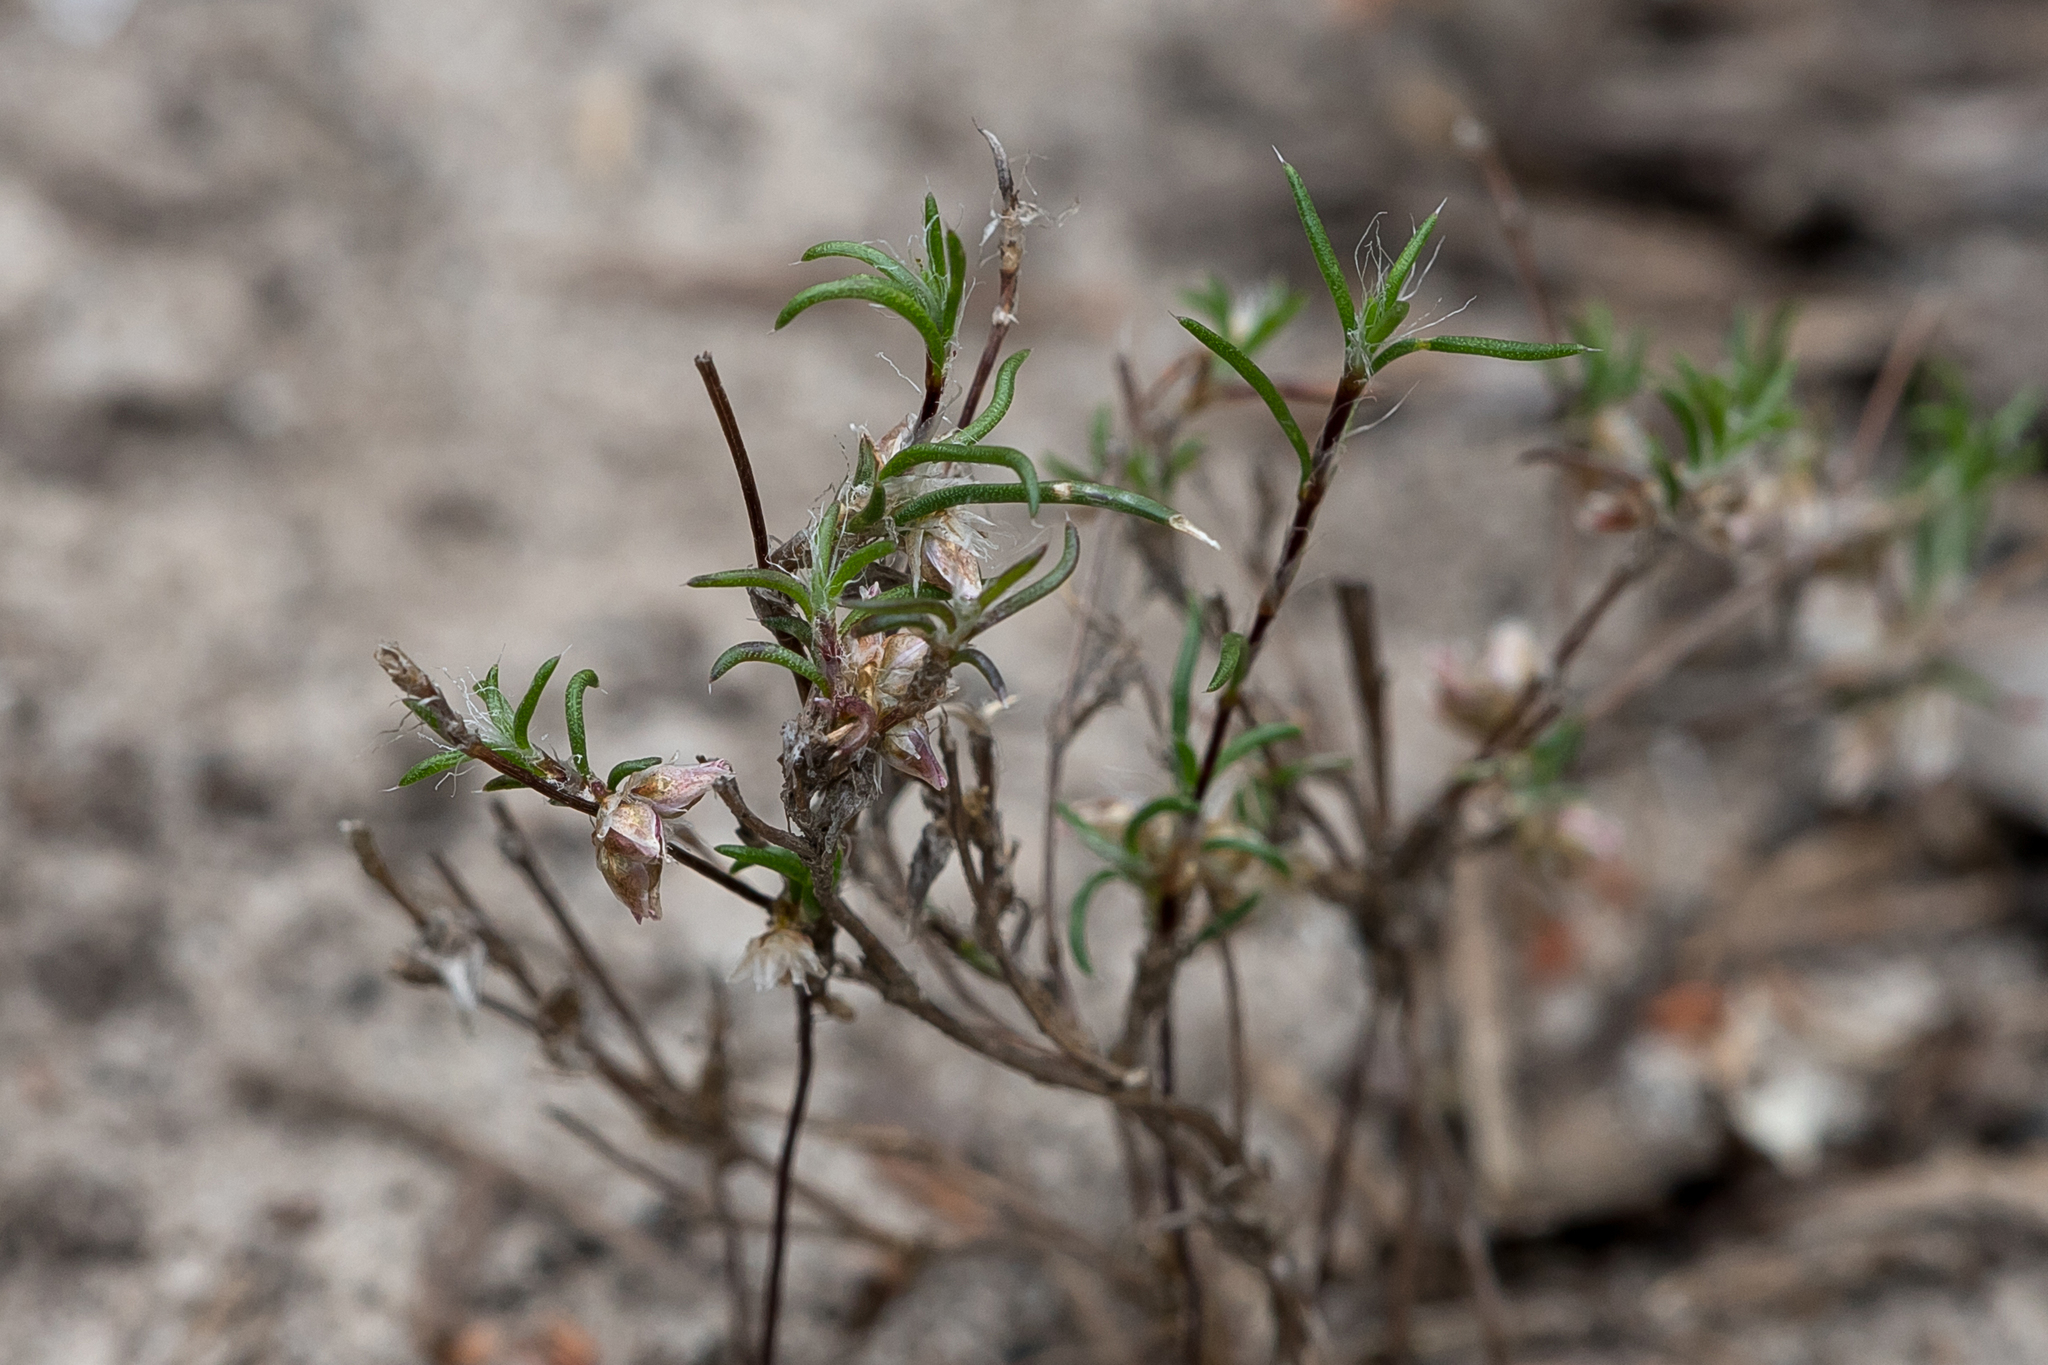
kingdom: Plantae
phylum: Tracheophyta
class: Liliopsida
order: Asparagales
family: Asparagaceae
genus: Laxmannia
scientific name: Laxmannia orientalis
